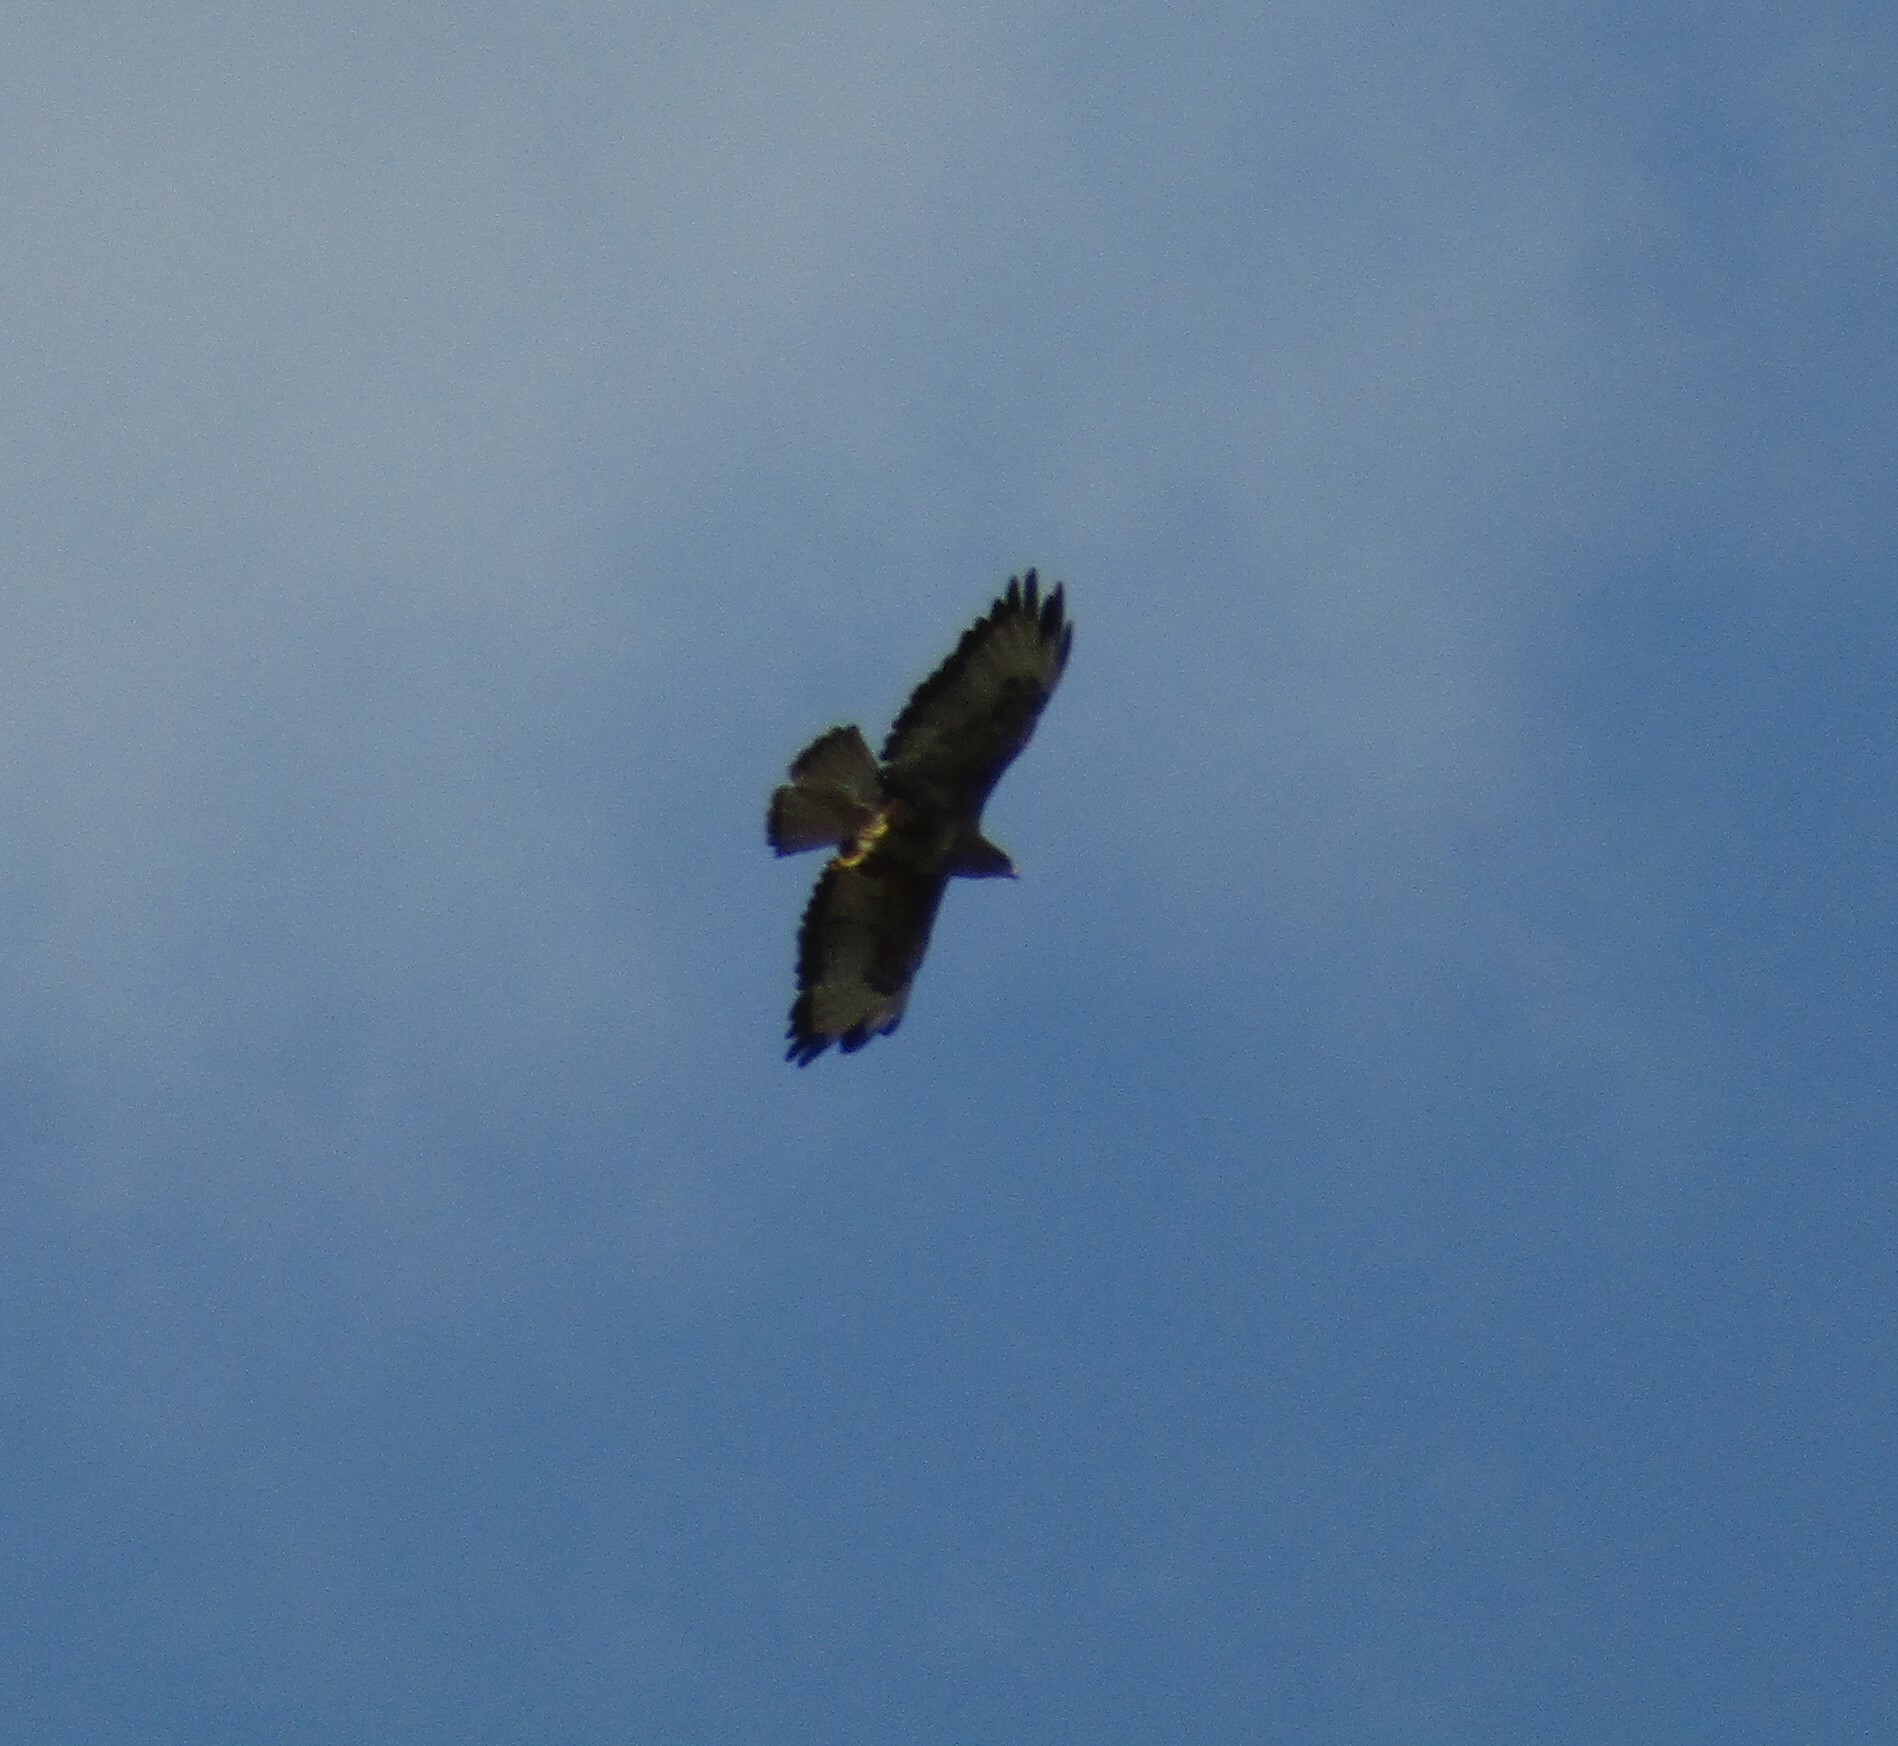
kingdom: Animalia
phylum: Chordata
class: Aves
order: Accipitriformes
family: Accipitridae
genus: Buteo
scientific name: Buteo buteo
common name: Common buzzard
